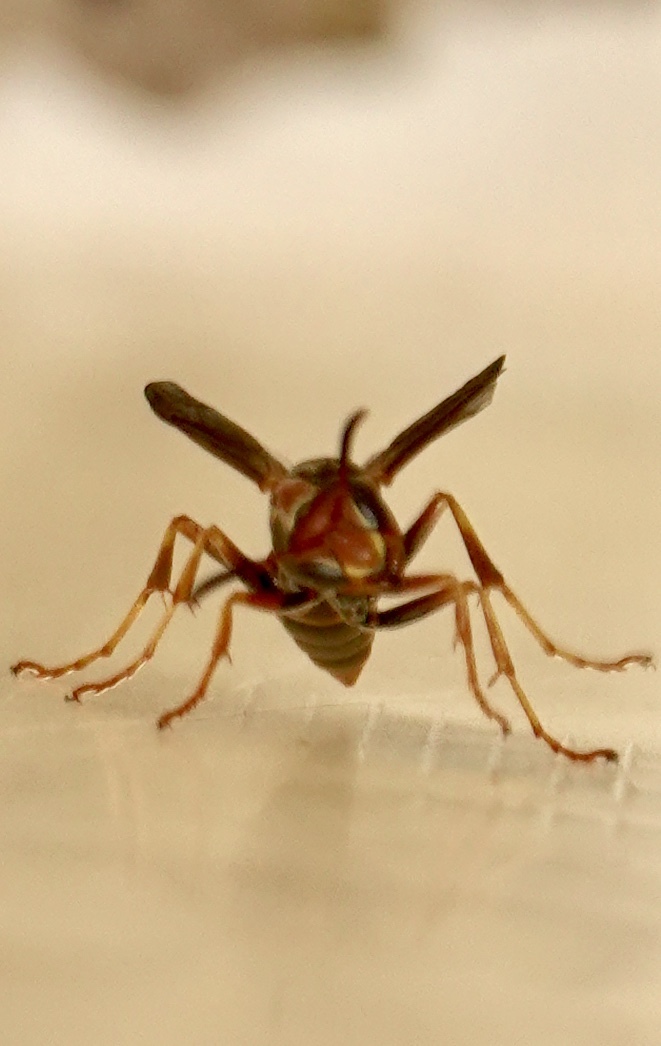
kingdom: Animalia
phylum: Arthropoda
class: Insecta
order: Hymenoptera
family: Eumenidae
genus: Polistes
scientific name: Polistes dorsalis
